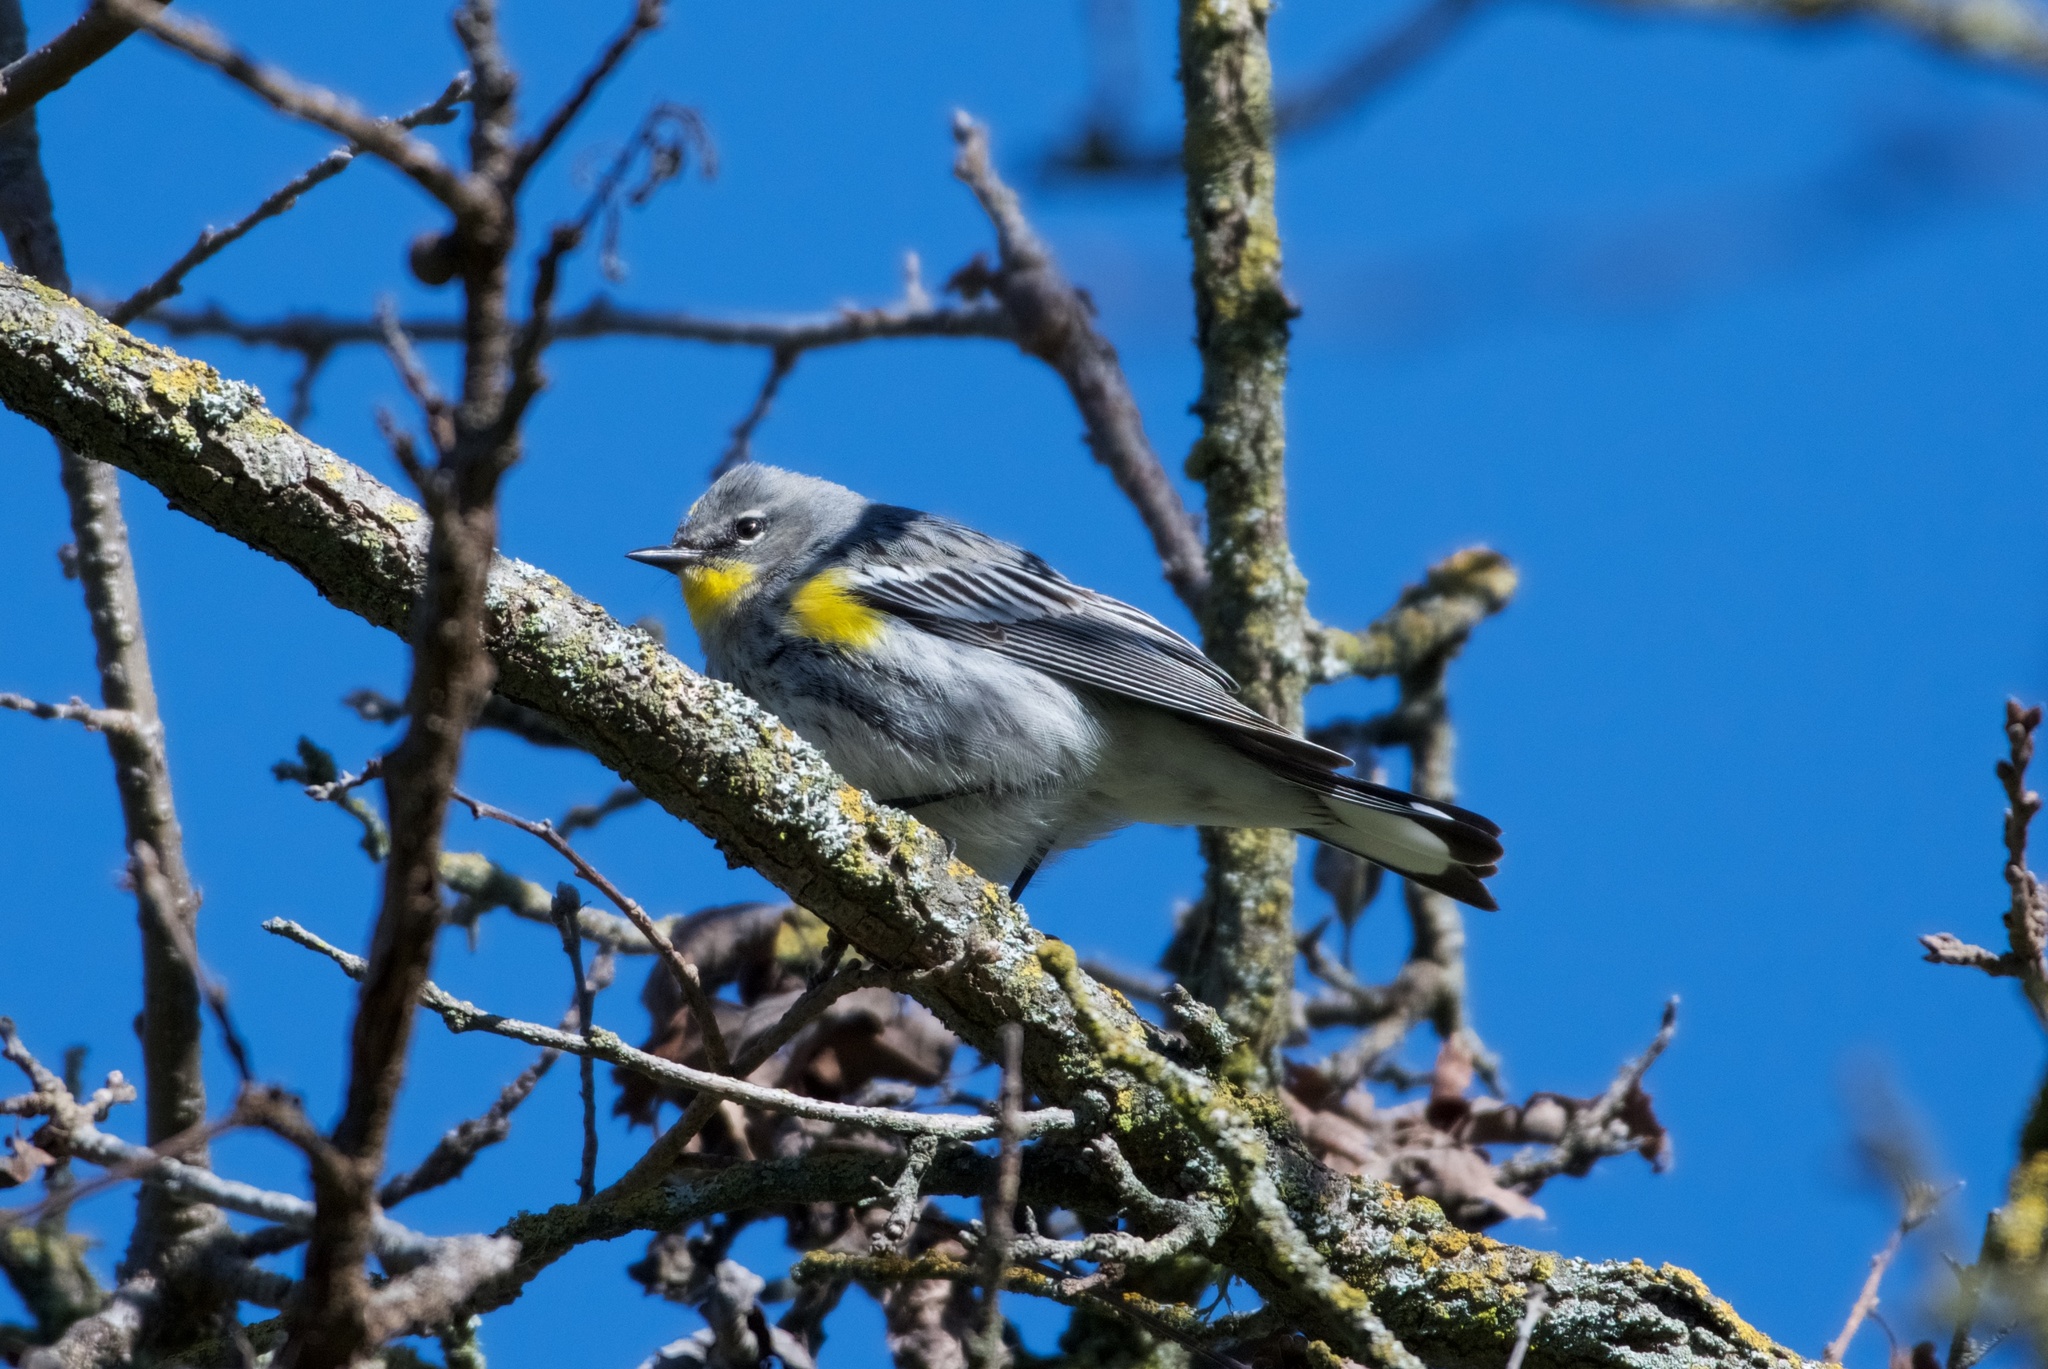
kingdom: Animalia
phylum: Chordata
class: Aves
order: Passeriformes
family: Parulidae
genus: Setophaga
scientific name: Setophaga coronata
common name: Myrtle warbler
